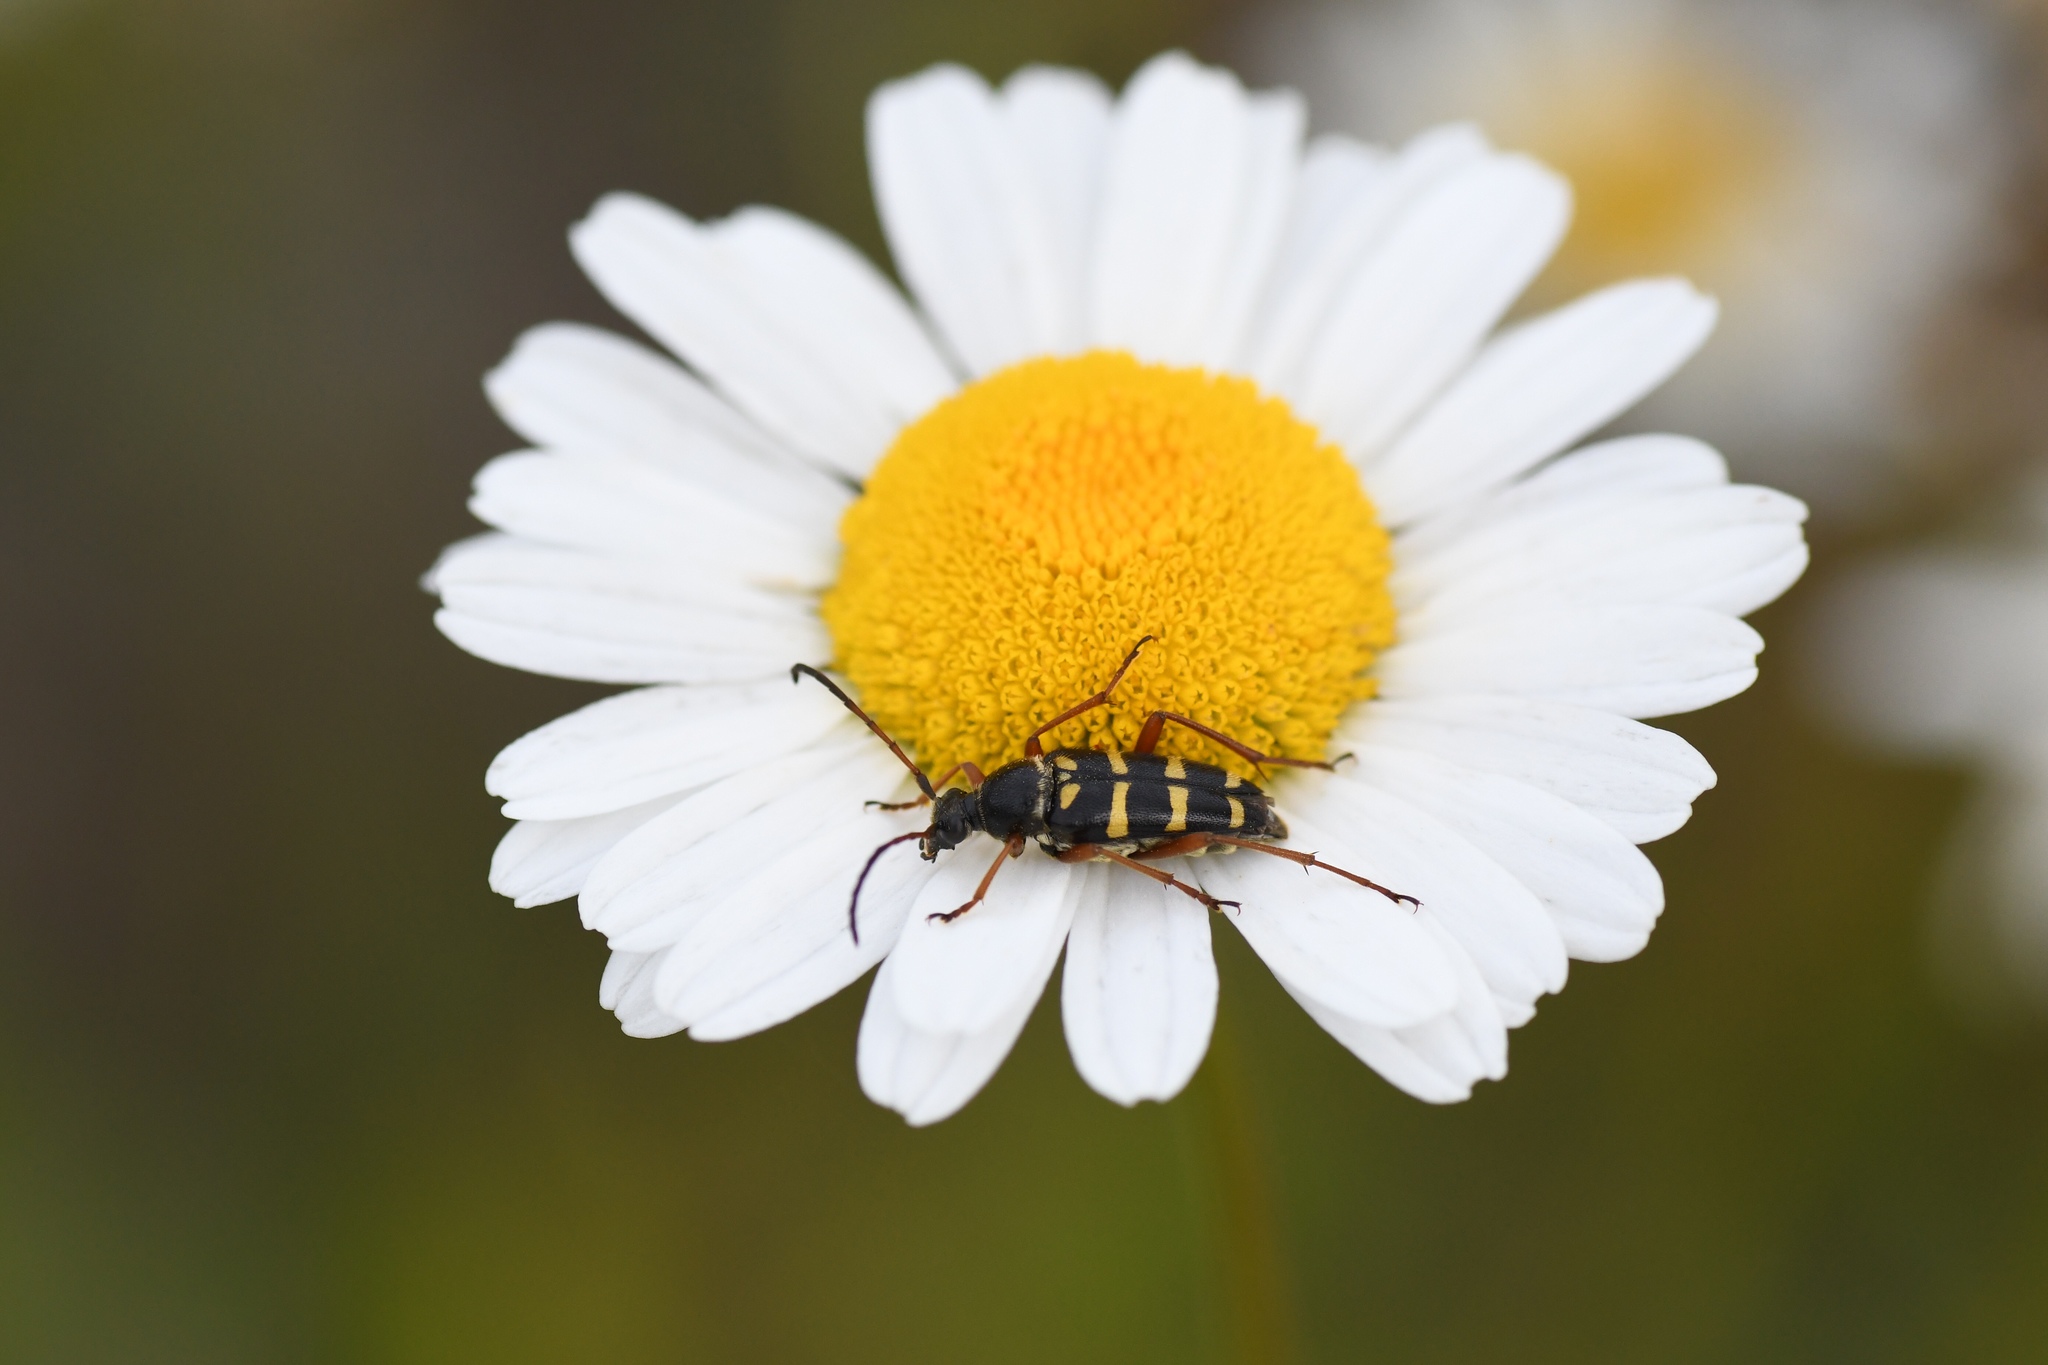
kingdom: Animalia
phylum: Arthropoda
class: Insecta
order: Coleoptera
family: Cerambycidae
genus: Typocerus
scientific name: Typocerus sparsus
